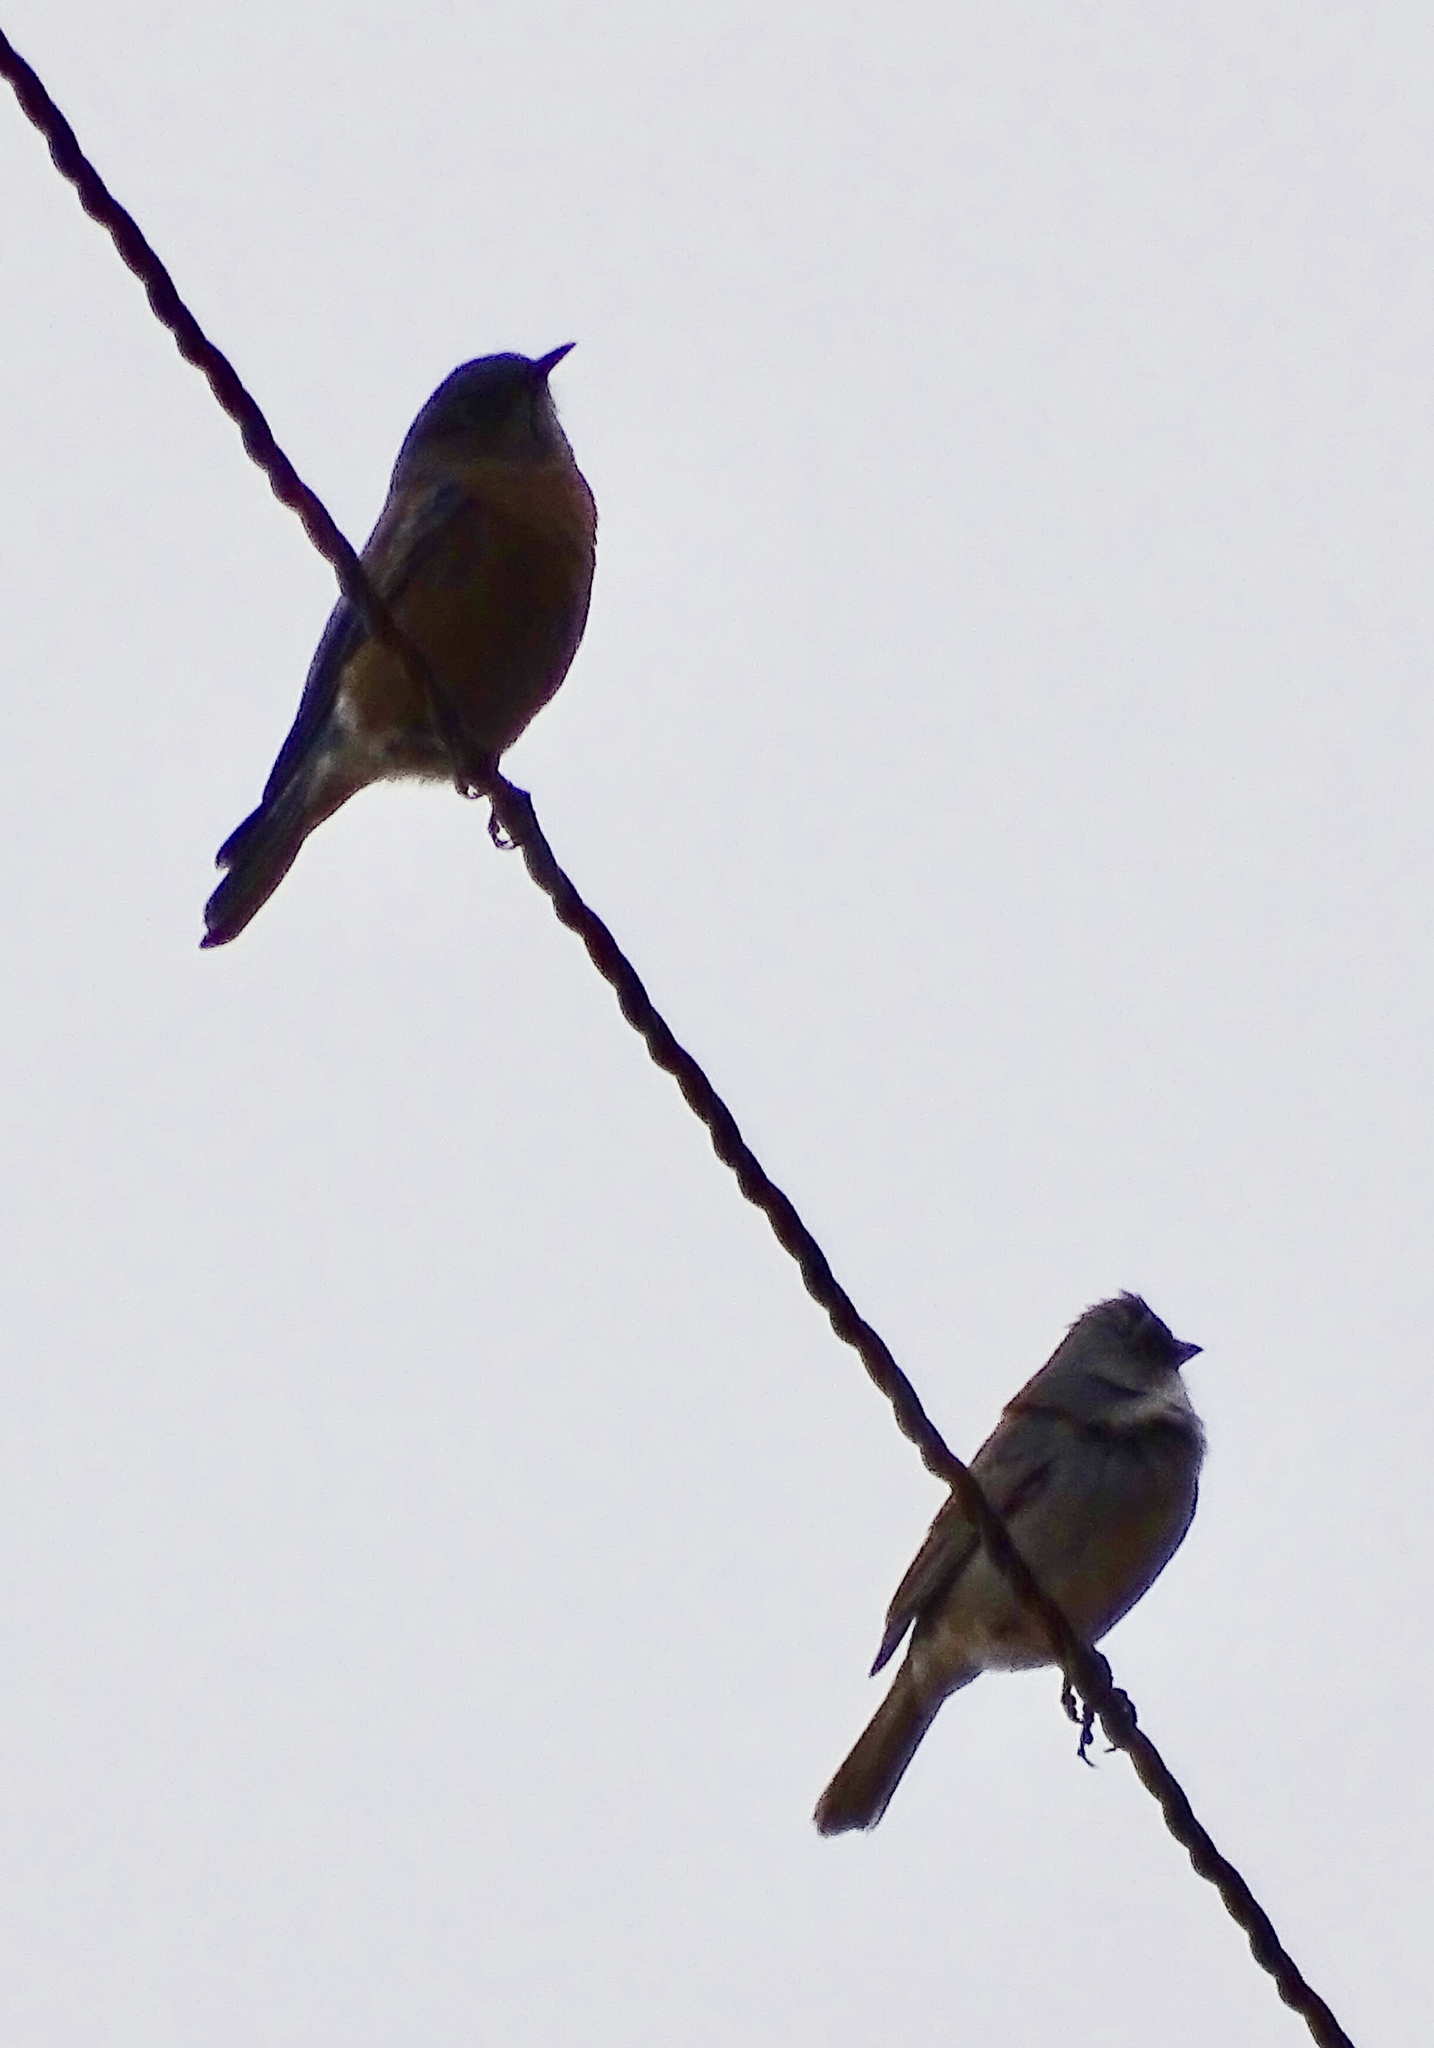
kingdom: Animalia
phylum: Chordata
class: Aves
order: Passeriformes
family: Passerellidae
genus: Junco
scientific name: Junco hyemalis
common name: Dark-eyed junco
